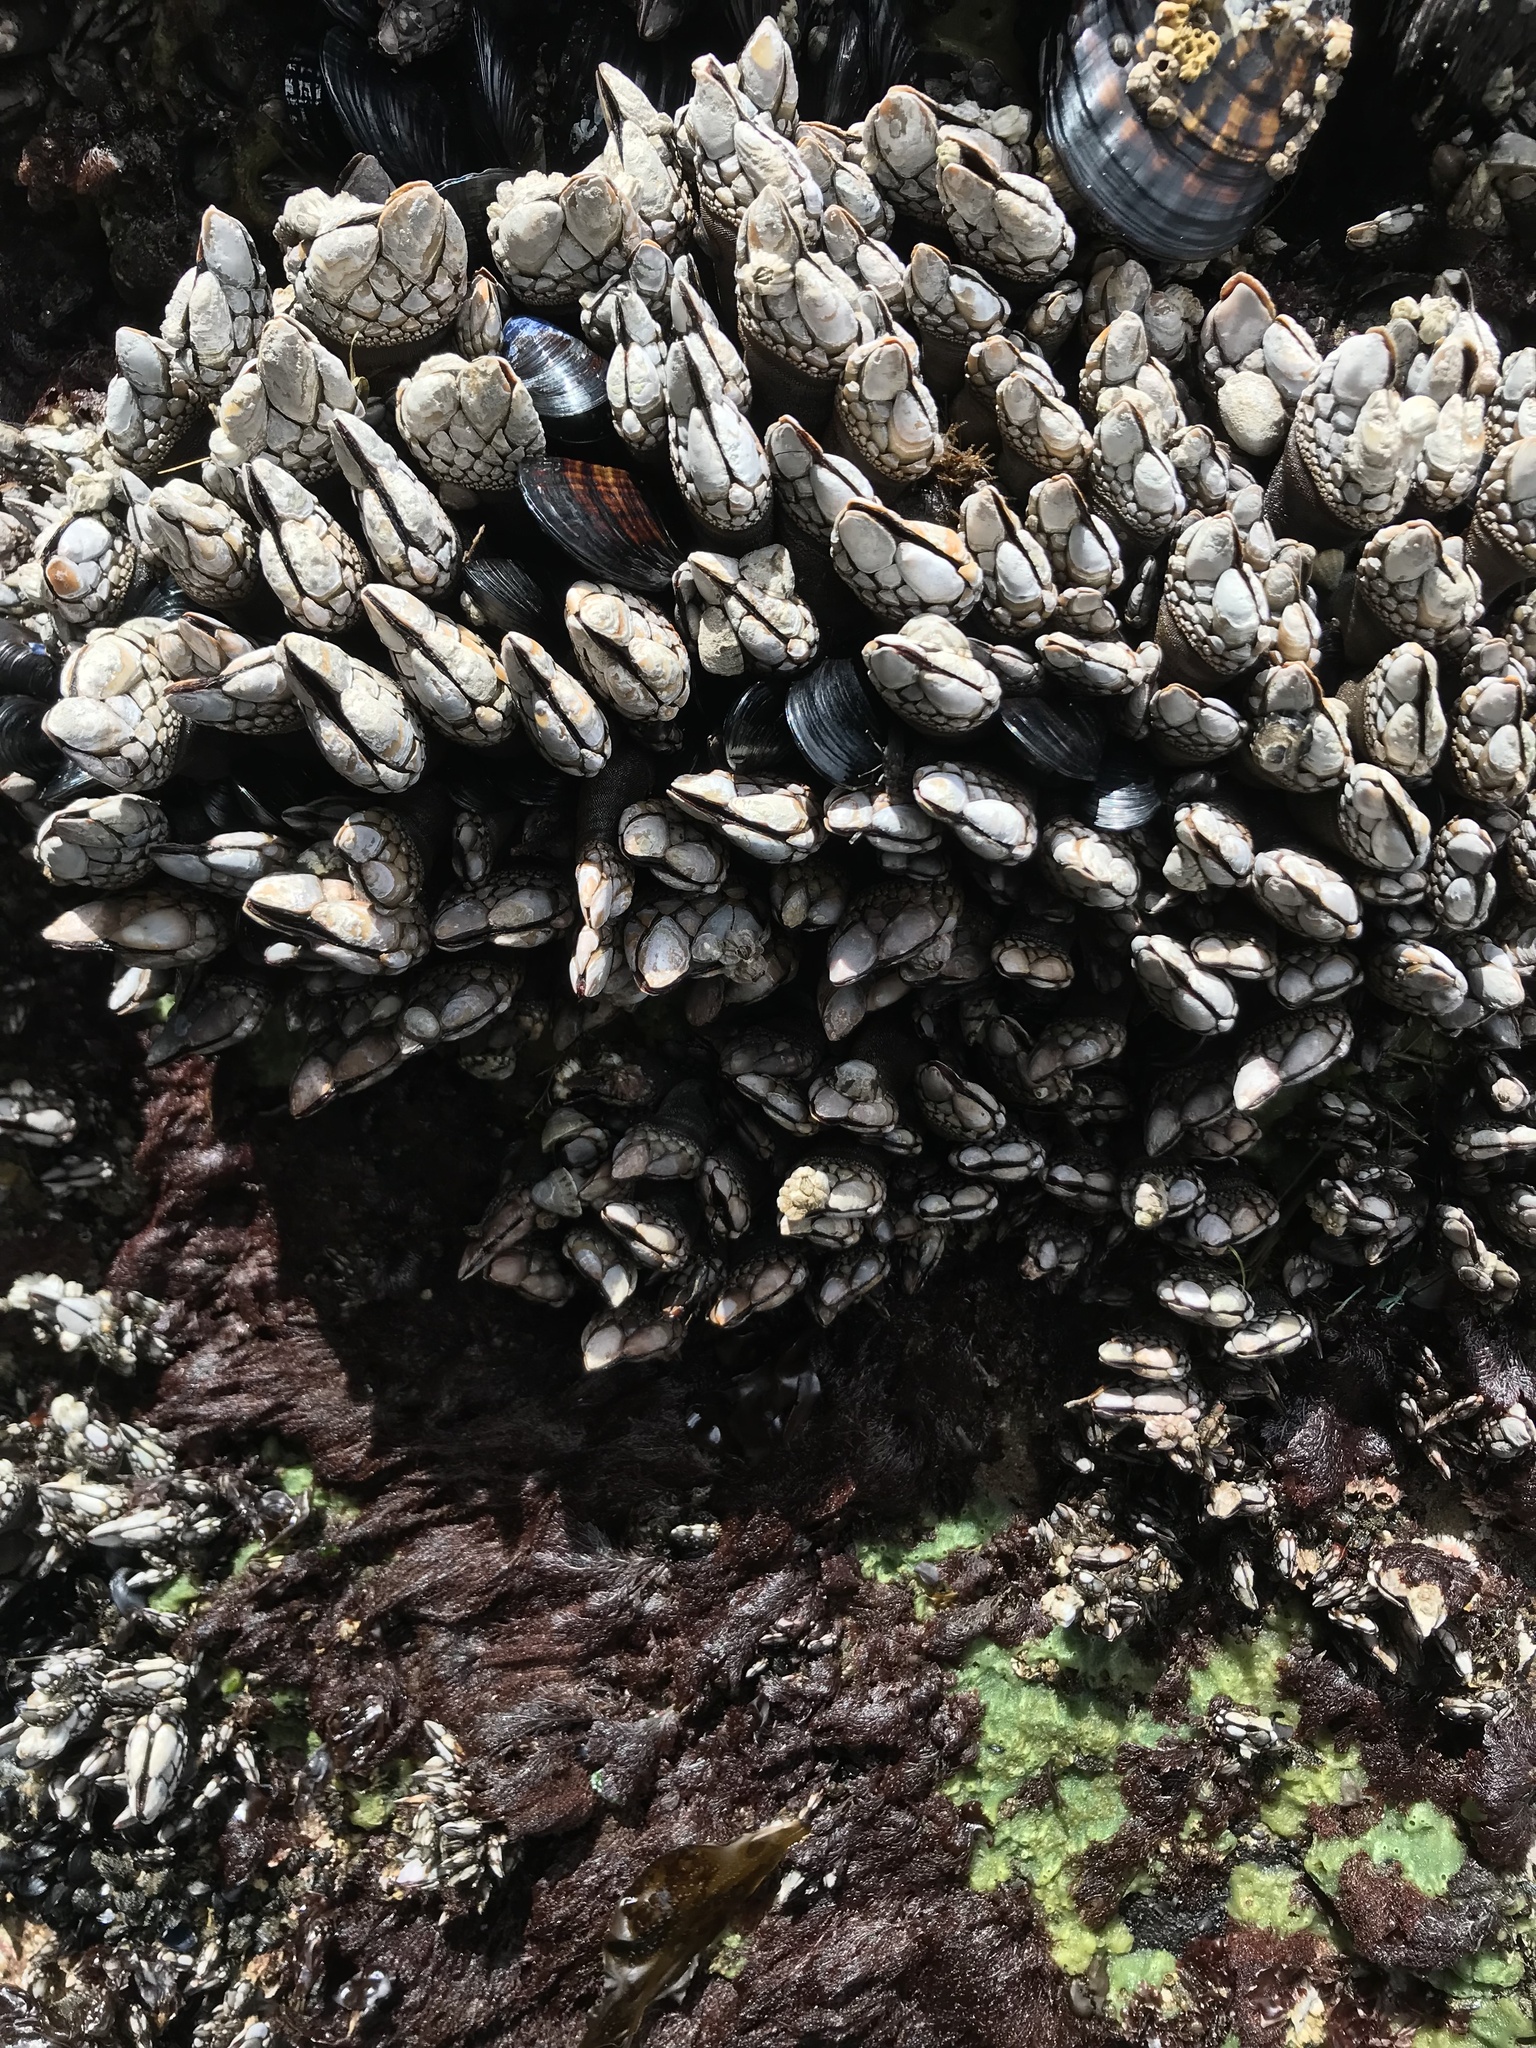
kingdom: Animalia
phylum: Arthropoda
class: Maxillopoda
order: Pedunculata
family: Pollicipedidae
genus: Pollicipes
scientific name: Pollicipes polymerus
